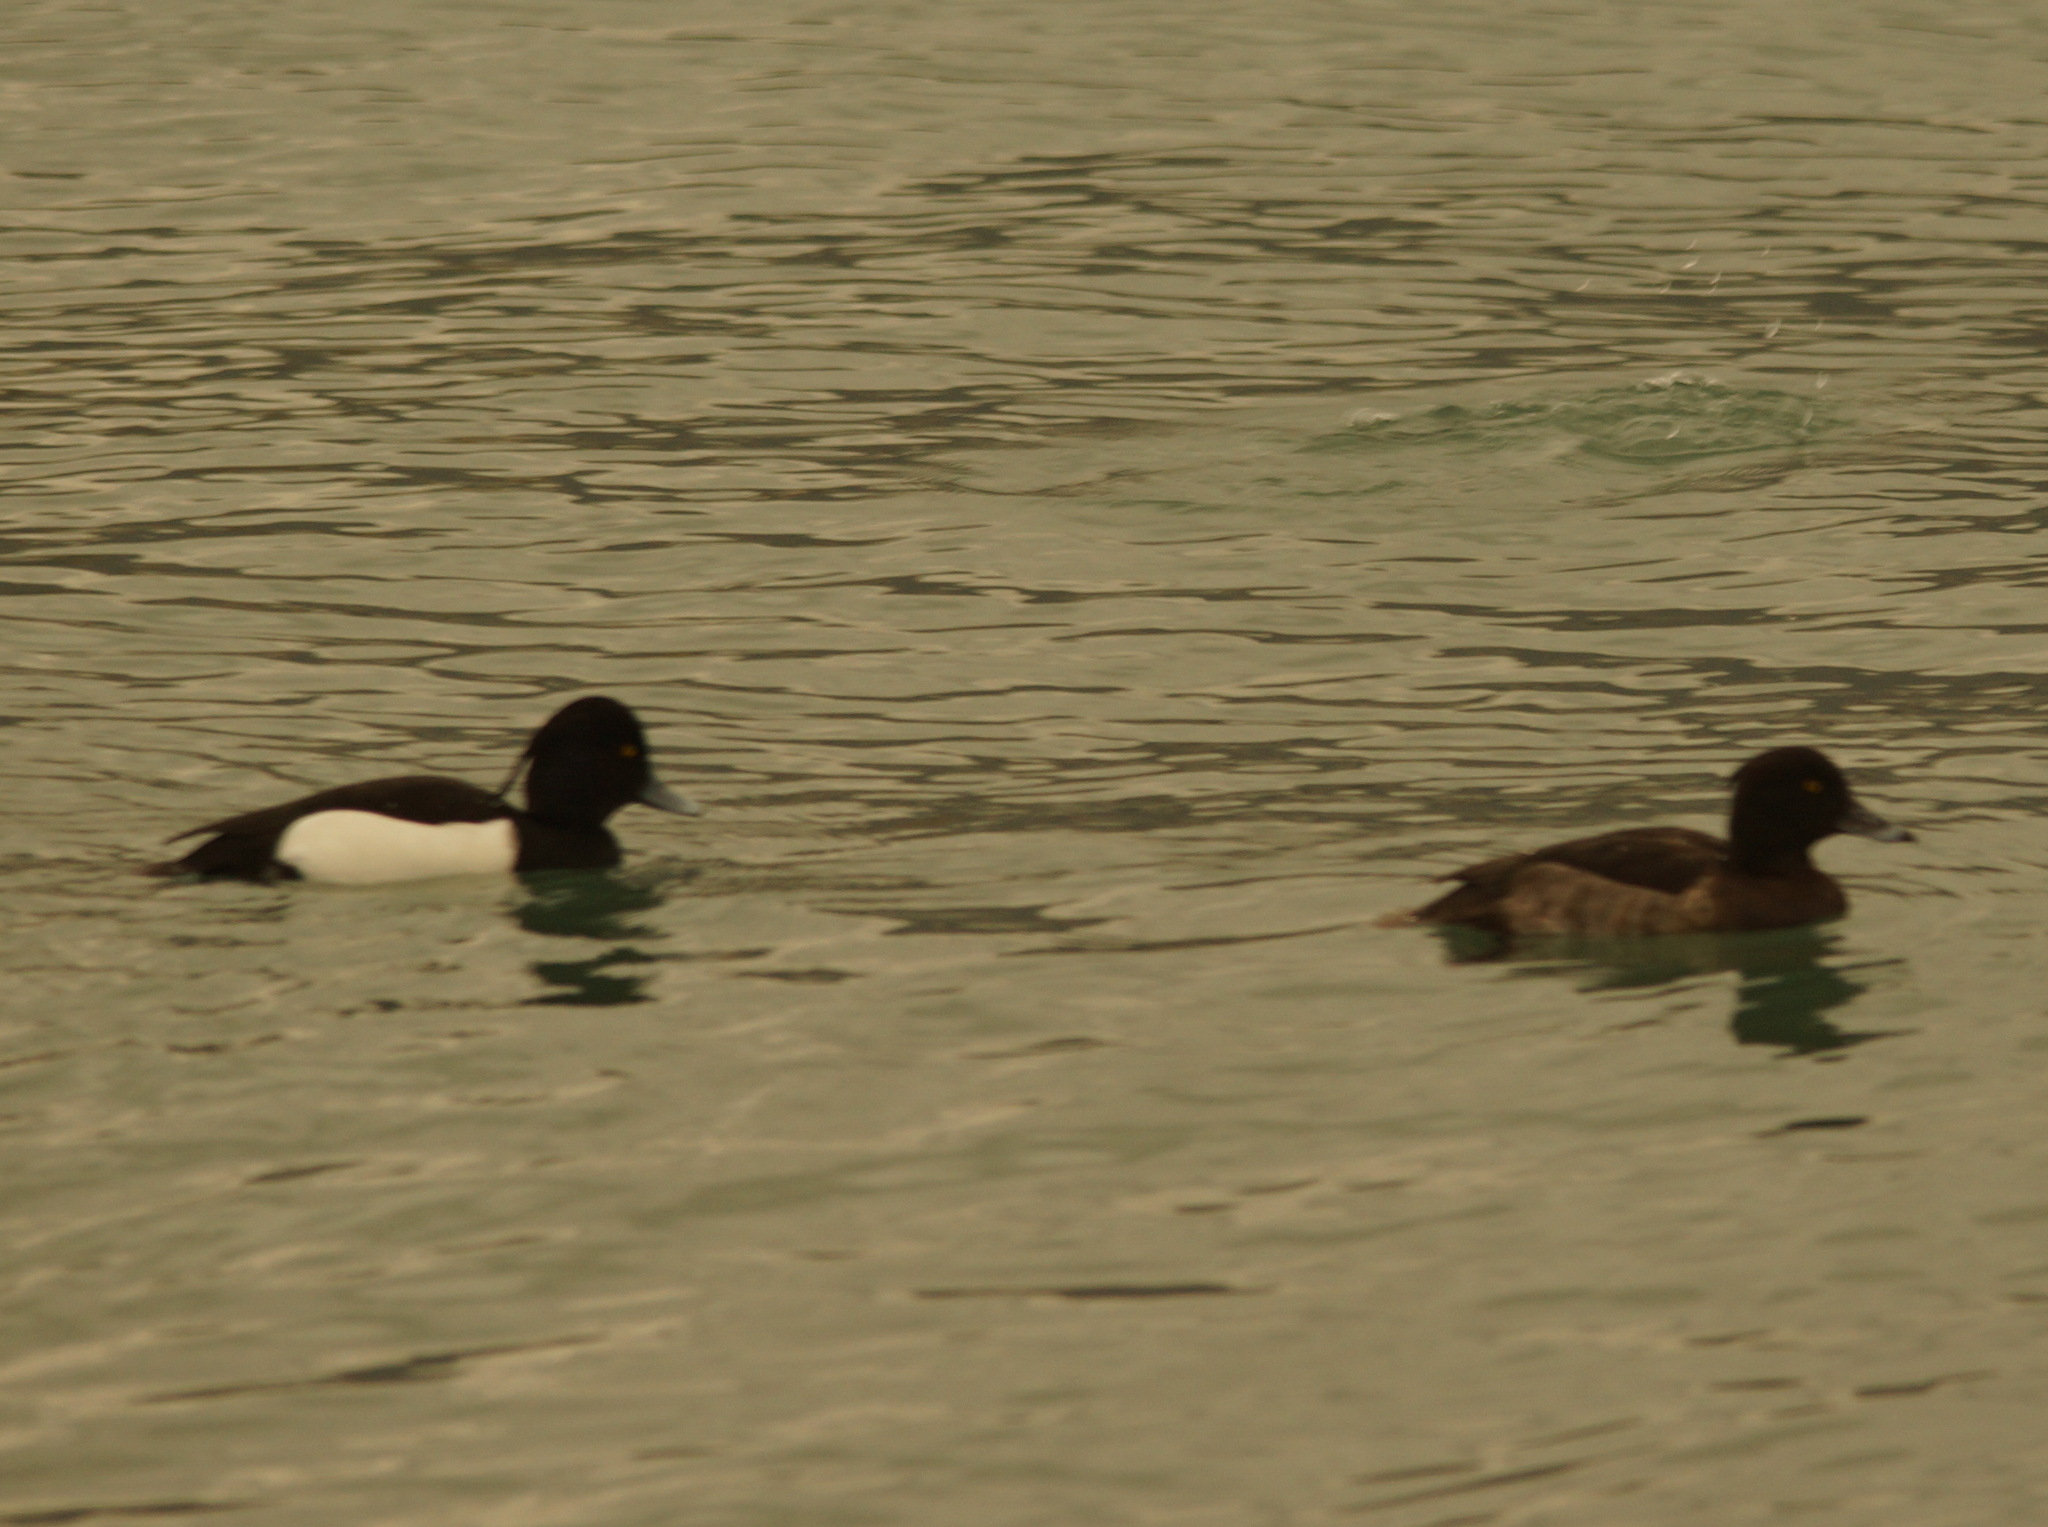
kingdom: Animalia
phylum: Chordata
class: Aves
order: Anseriformes
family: Anatidae
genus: Aythya
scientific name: Aythya fuligula
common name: Tufted duck
